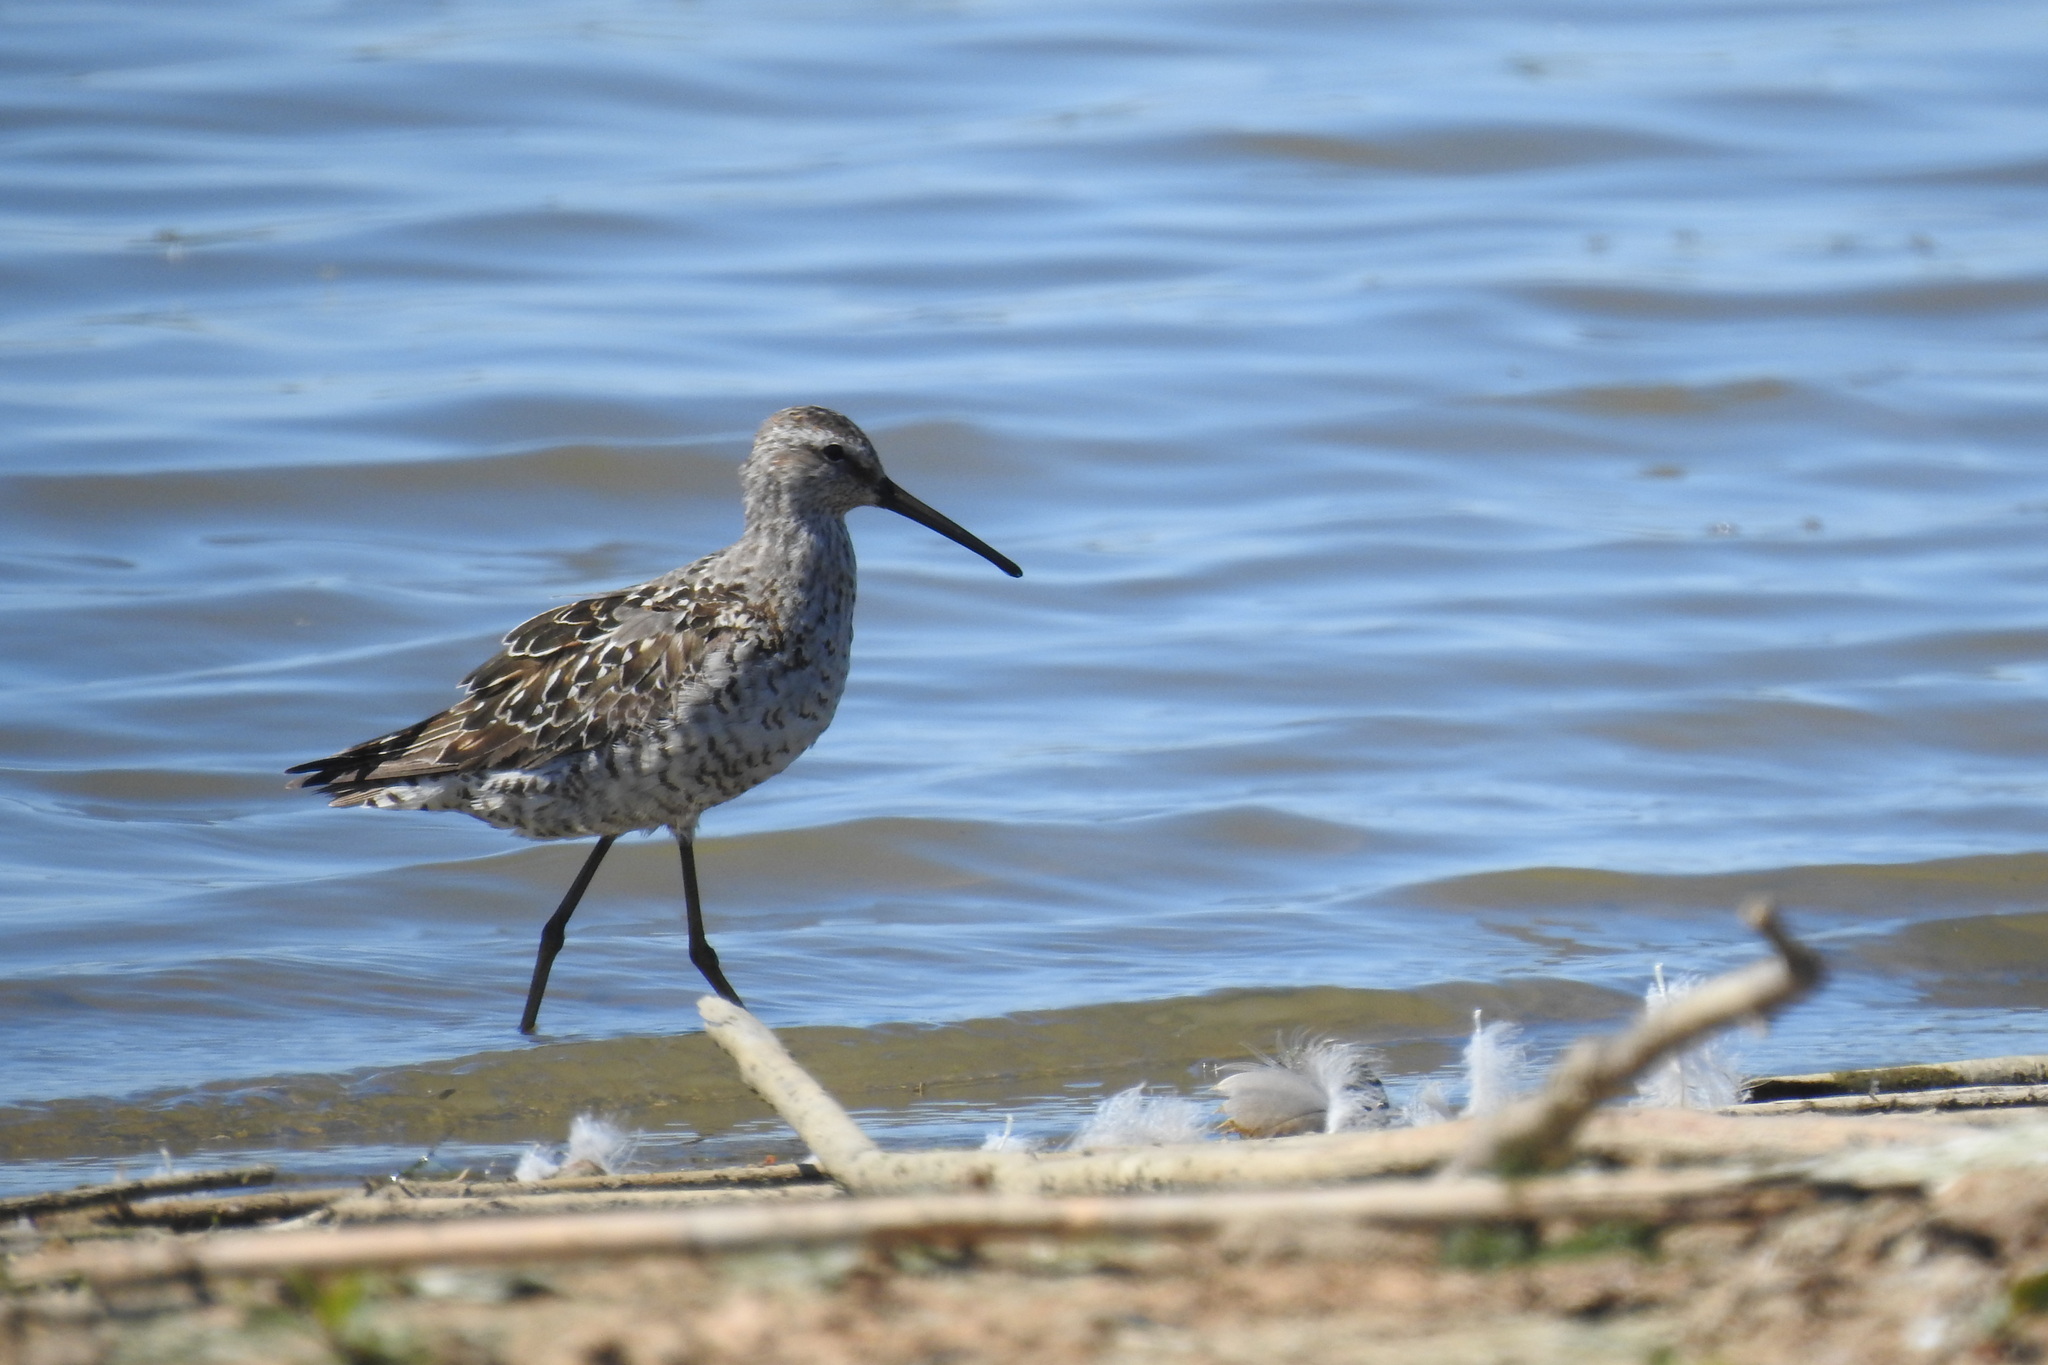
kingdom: Animalia
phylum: Chordata
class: Aves
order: Charadriiformes
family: Scolopacidae
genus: Calidris
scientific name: Calidris himantopus
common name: Stilt sandpiper
